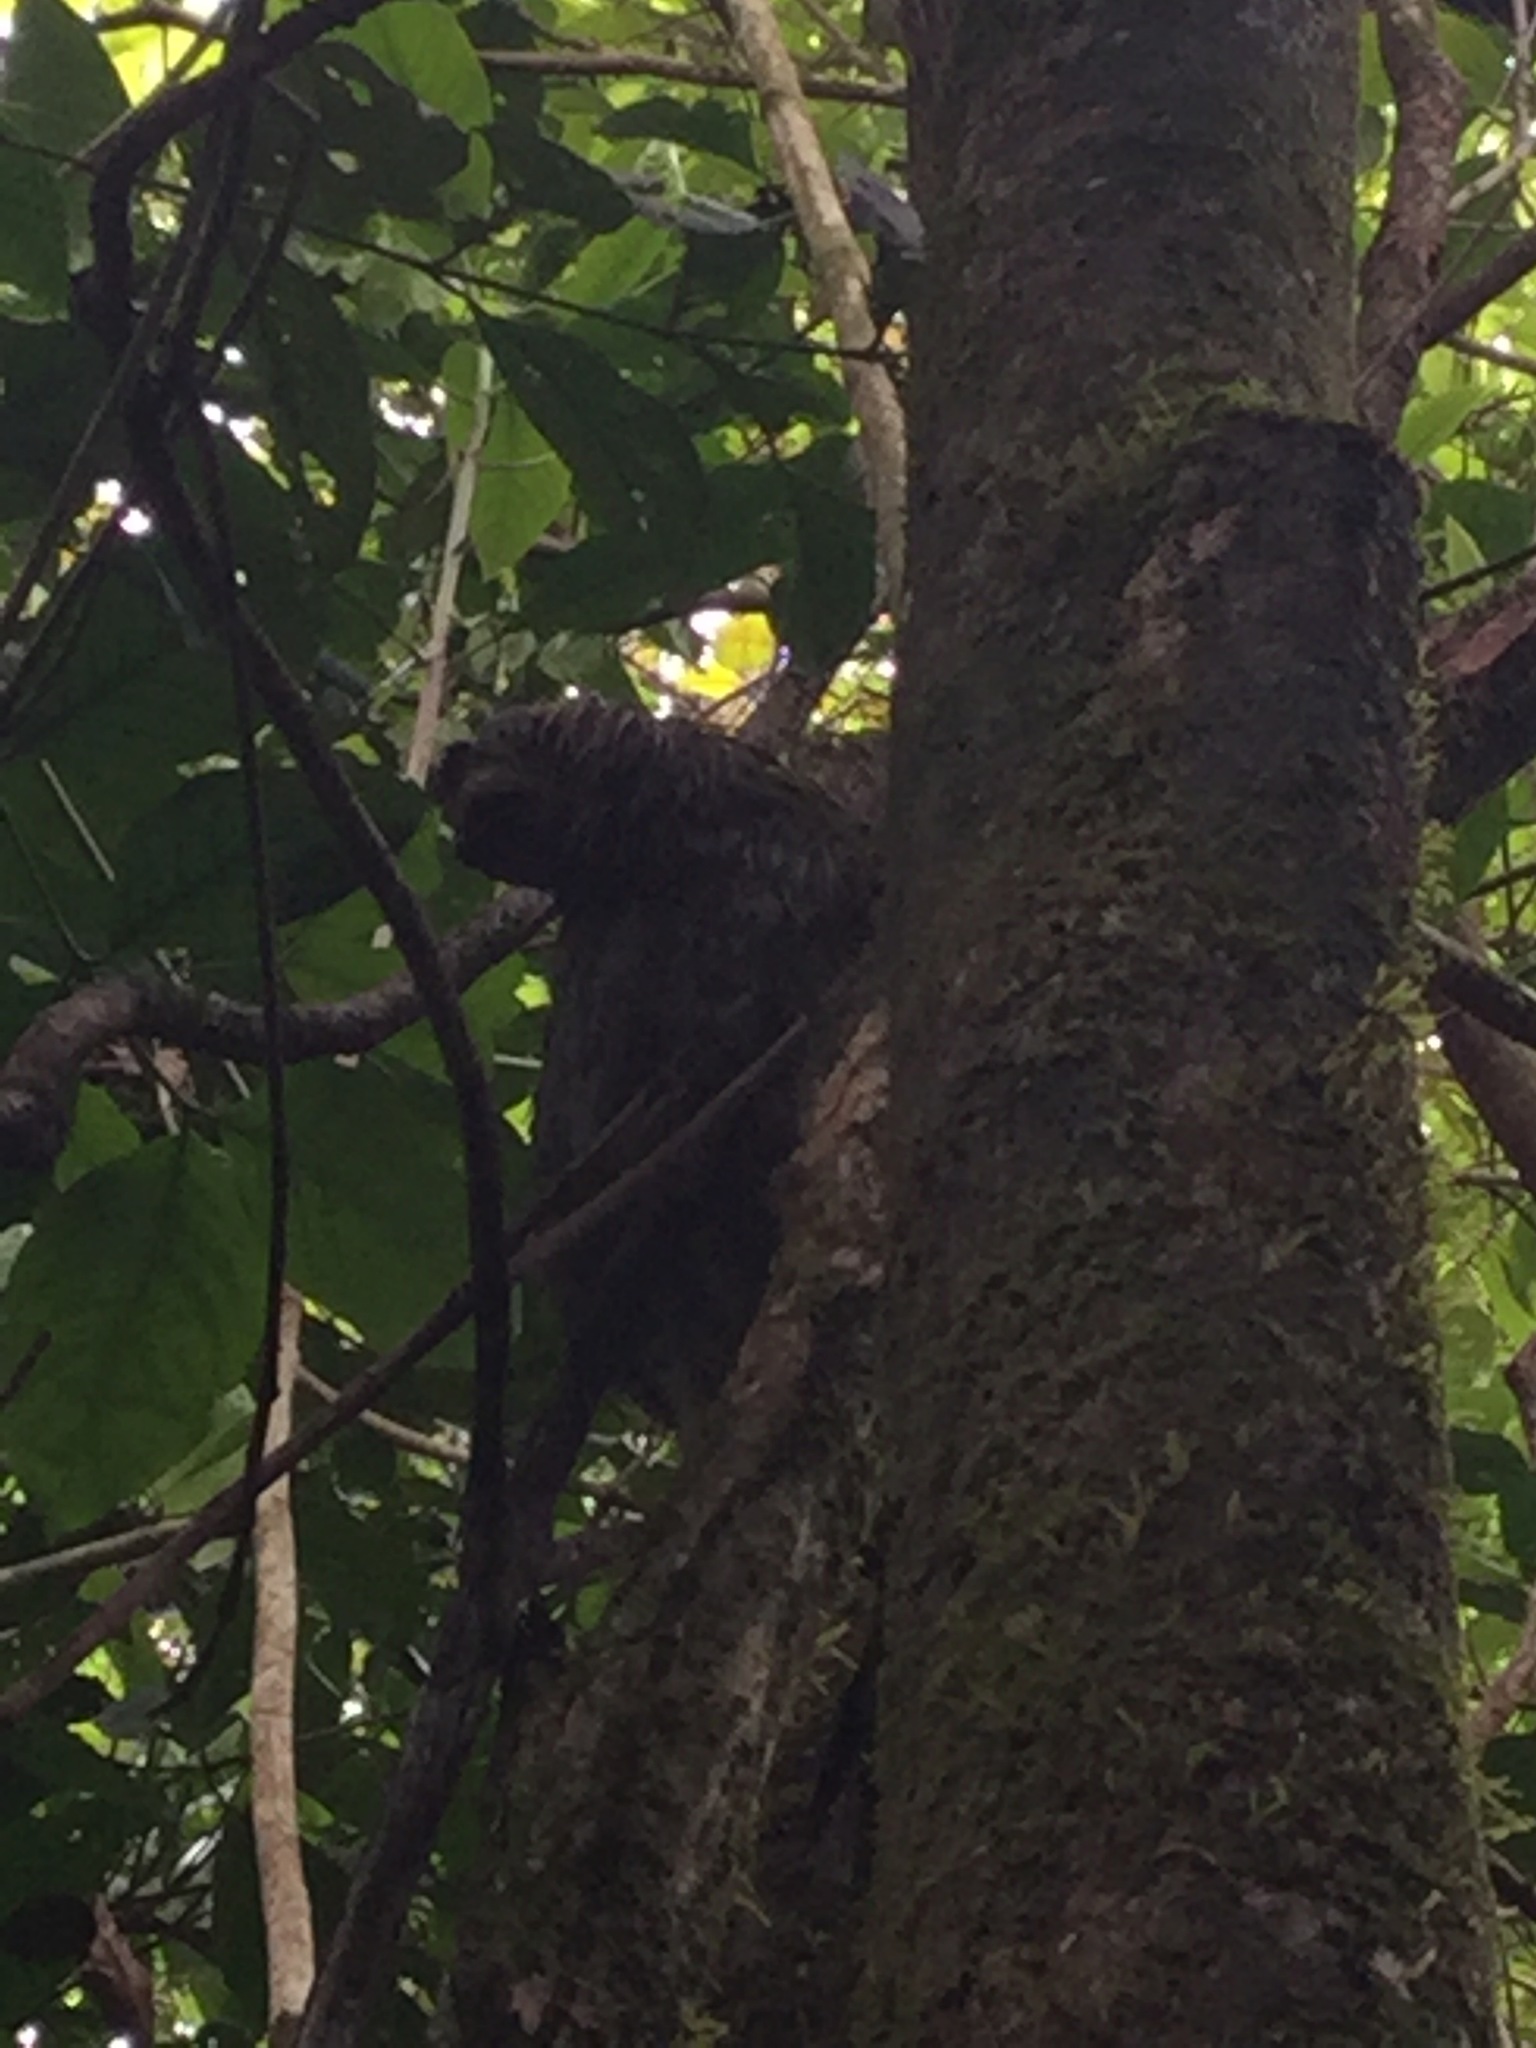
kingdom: Animalia
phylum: Chordata
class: Mammalia
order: Pilosa
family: Bradypodidae
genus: Bradypus
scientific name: Bradypus variegatus
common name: Brown-throated three-toed sloth
